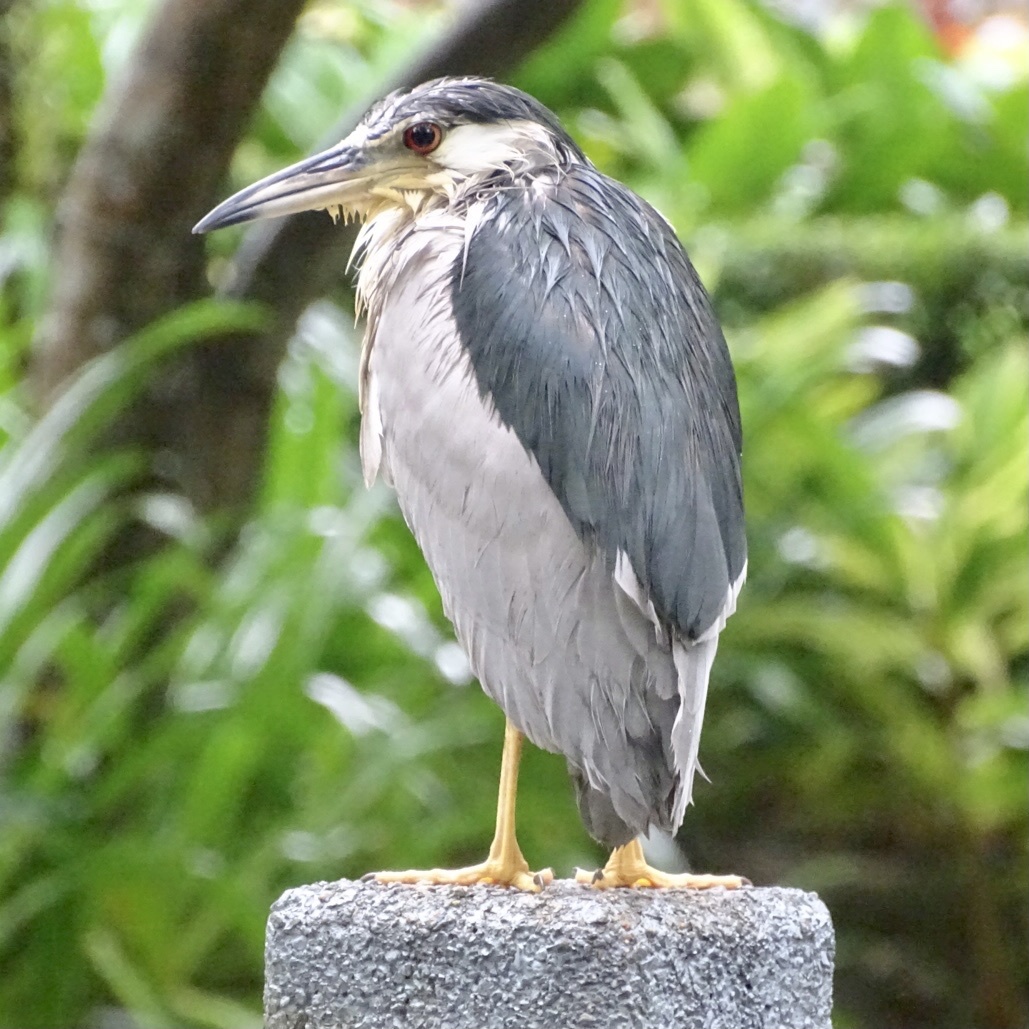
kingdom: Animalia
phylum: Chordata
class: Aves
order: Pelecaniformes
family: Ardeidae
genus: Nycticorax
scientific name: Nycticorax nycticorax
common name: Black-crowned night heron
